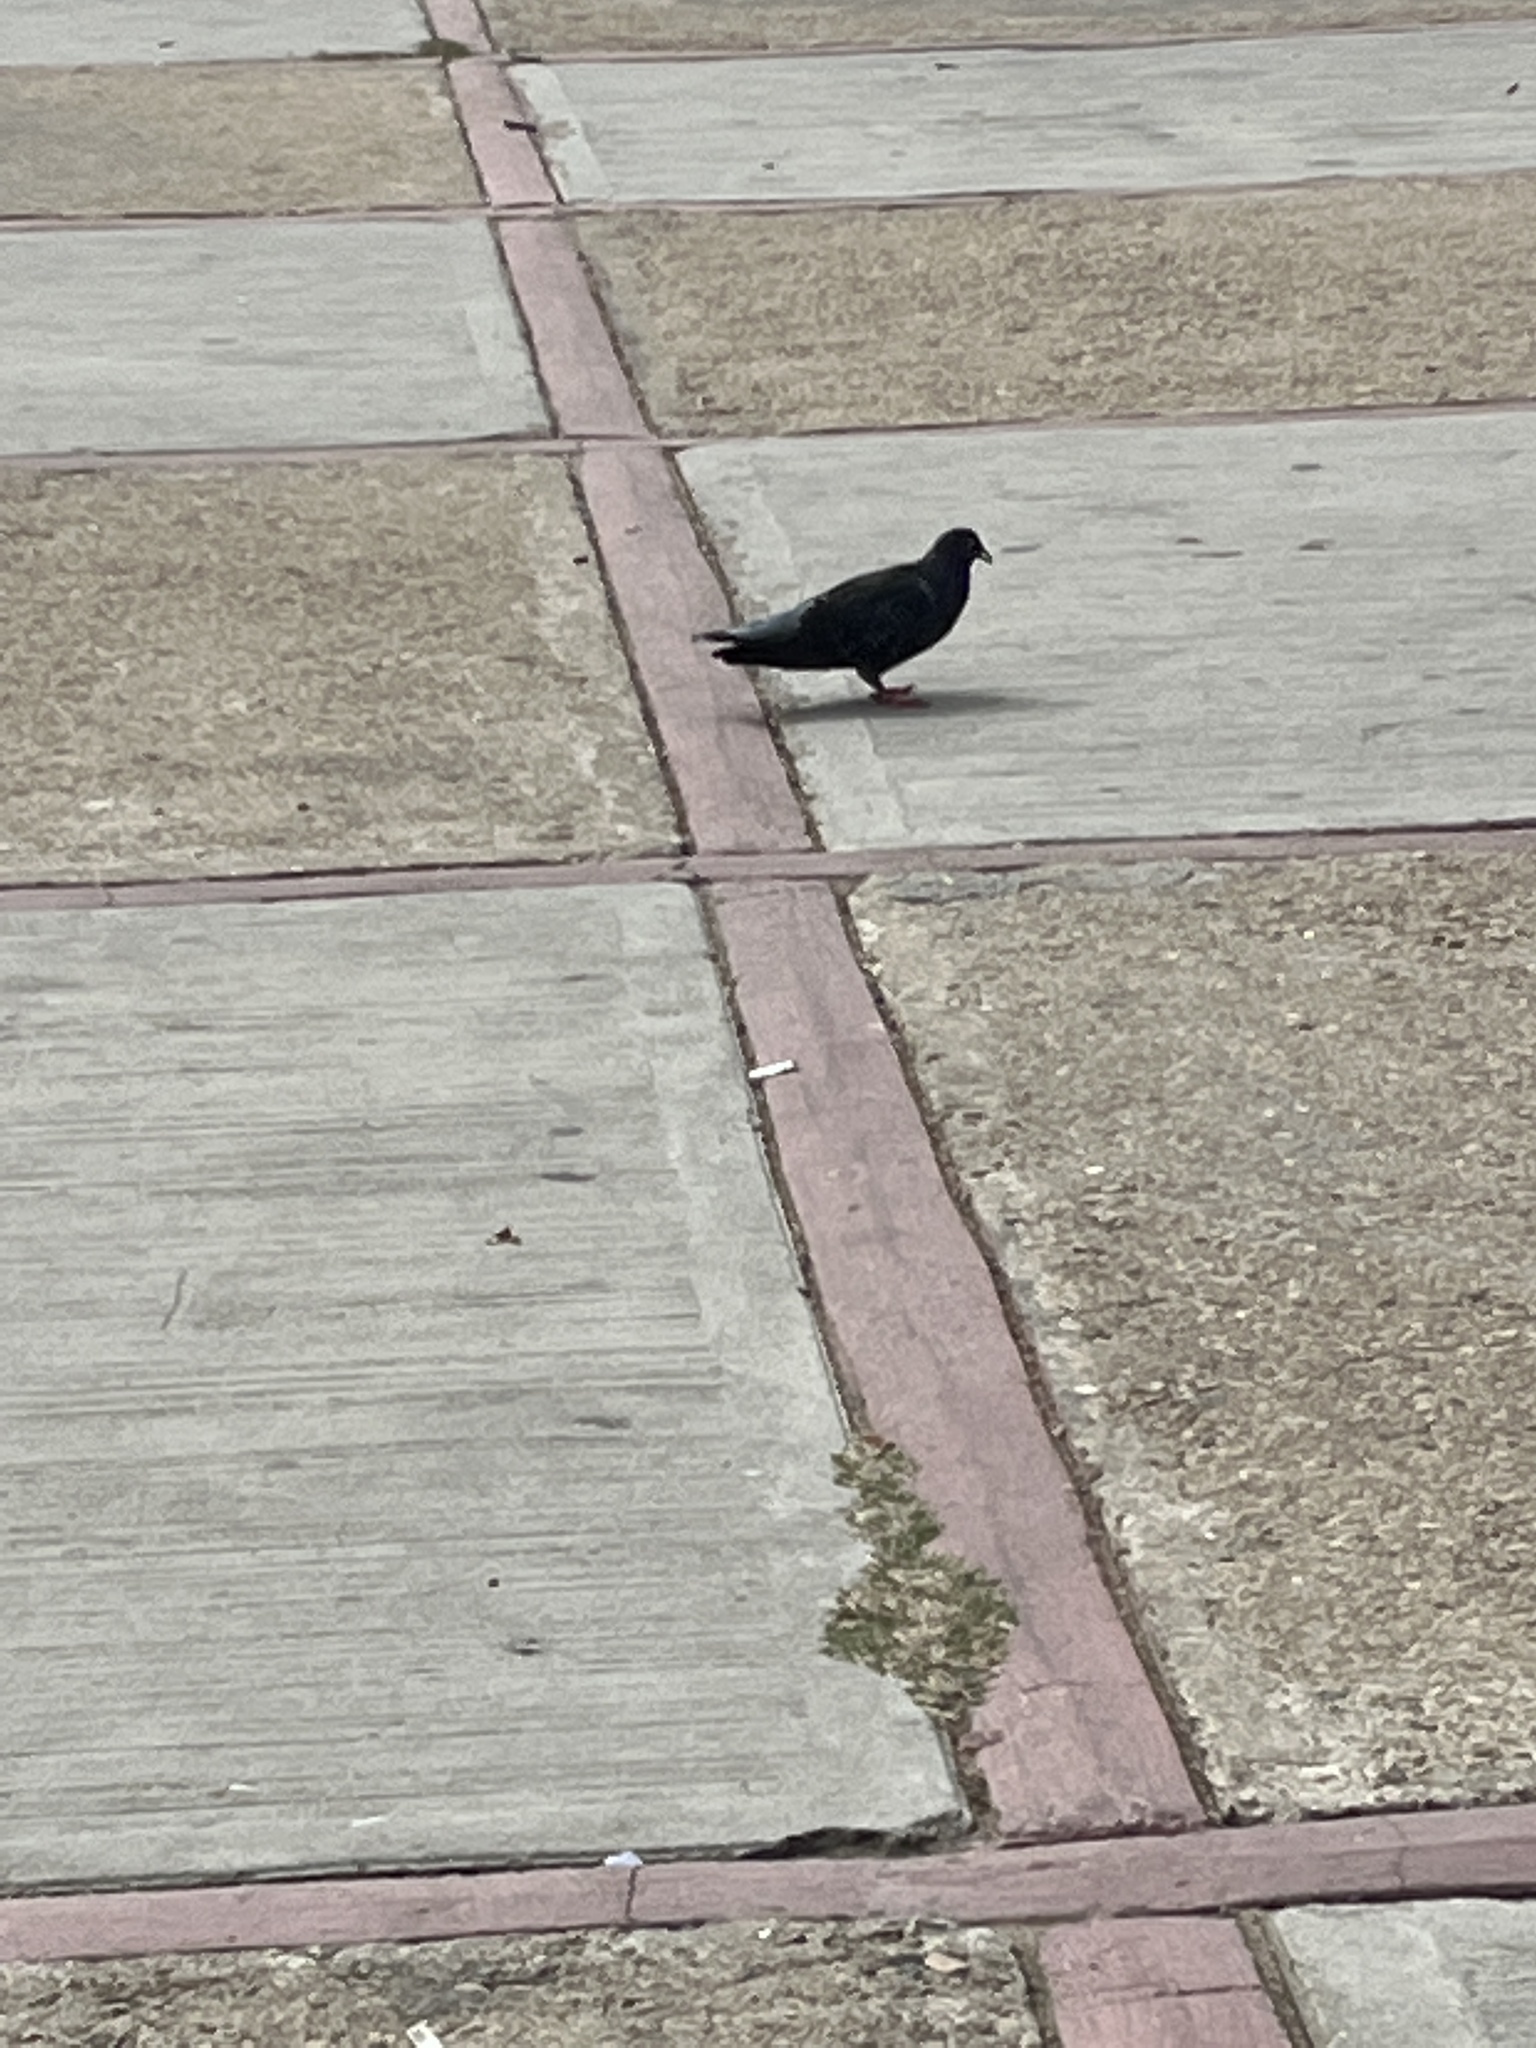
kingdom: Animalia
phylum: Chordata
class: Aves
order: Columbiformes
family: Columbidae
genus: Columba
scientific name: Columba livia
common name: Rock pigeon
